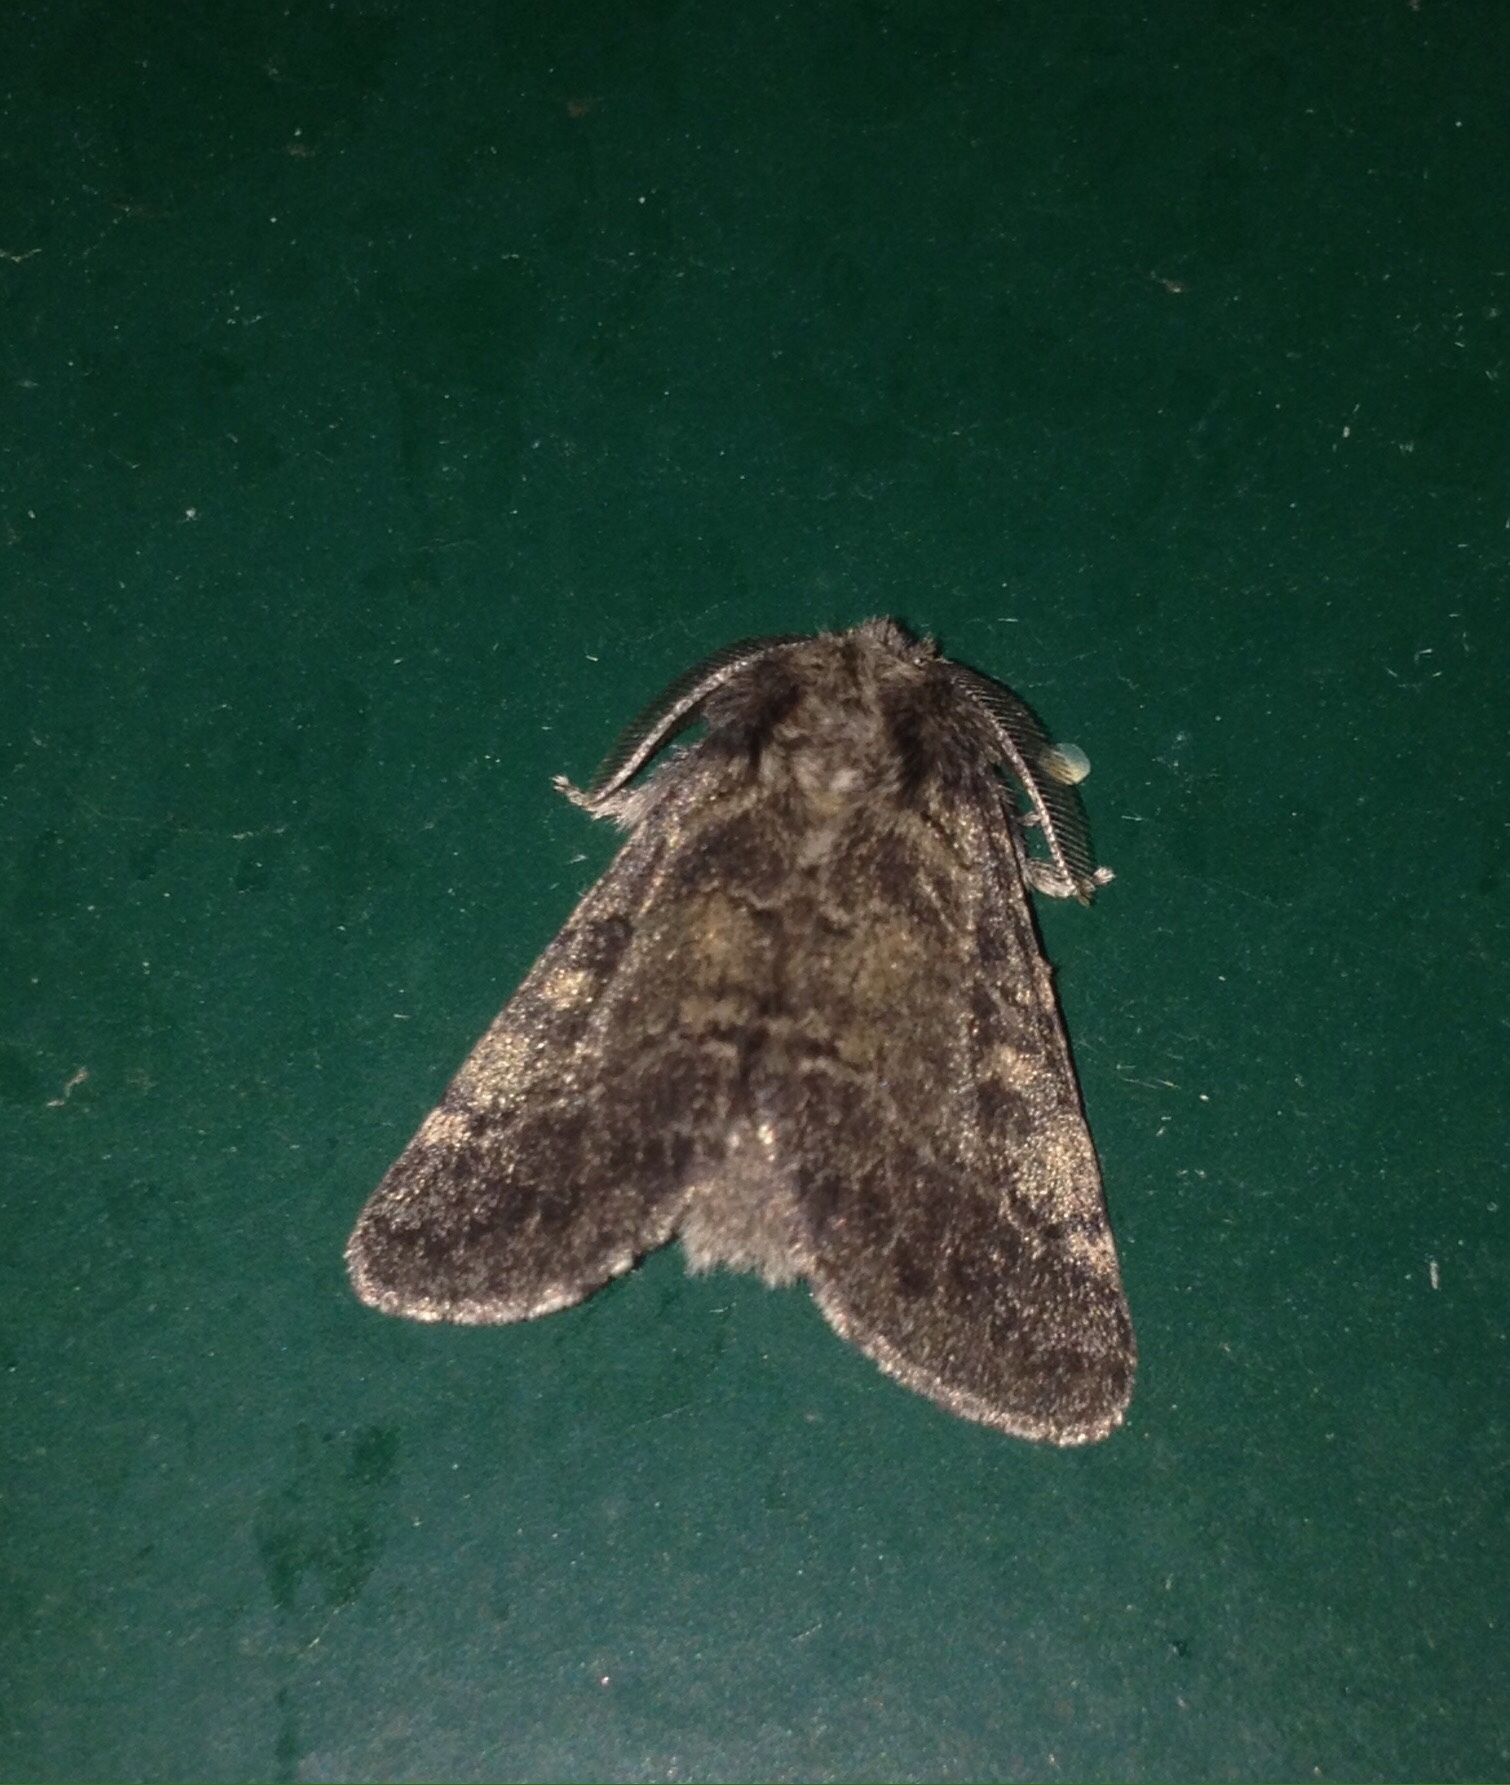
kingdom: Animalia
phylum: Arthropoda
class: Insecta
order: Lepidoptera
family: Notodontidae
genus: Gluphisia
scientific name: Gluphisia crenata
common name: Dusky marbled brown
